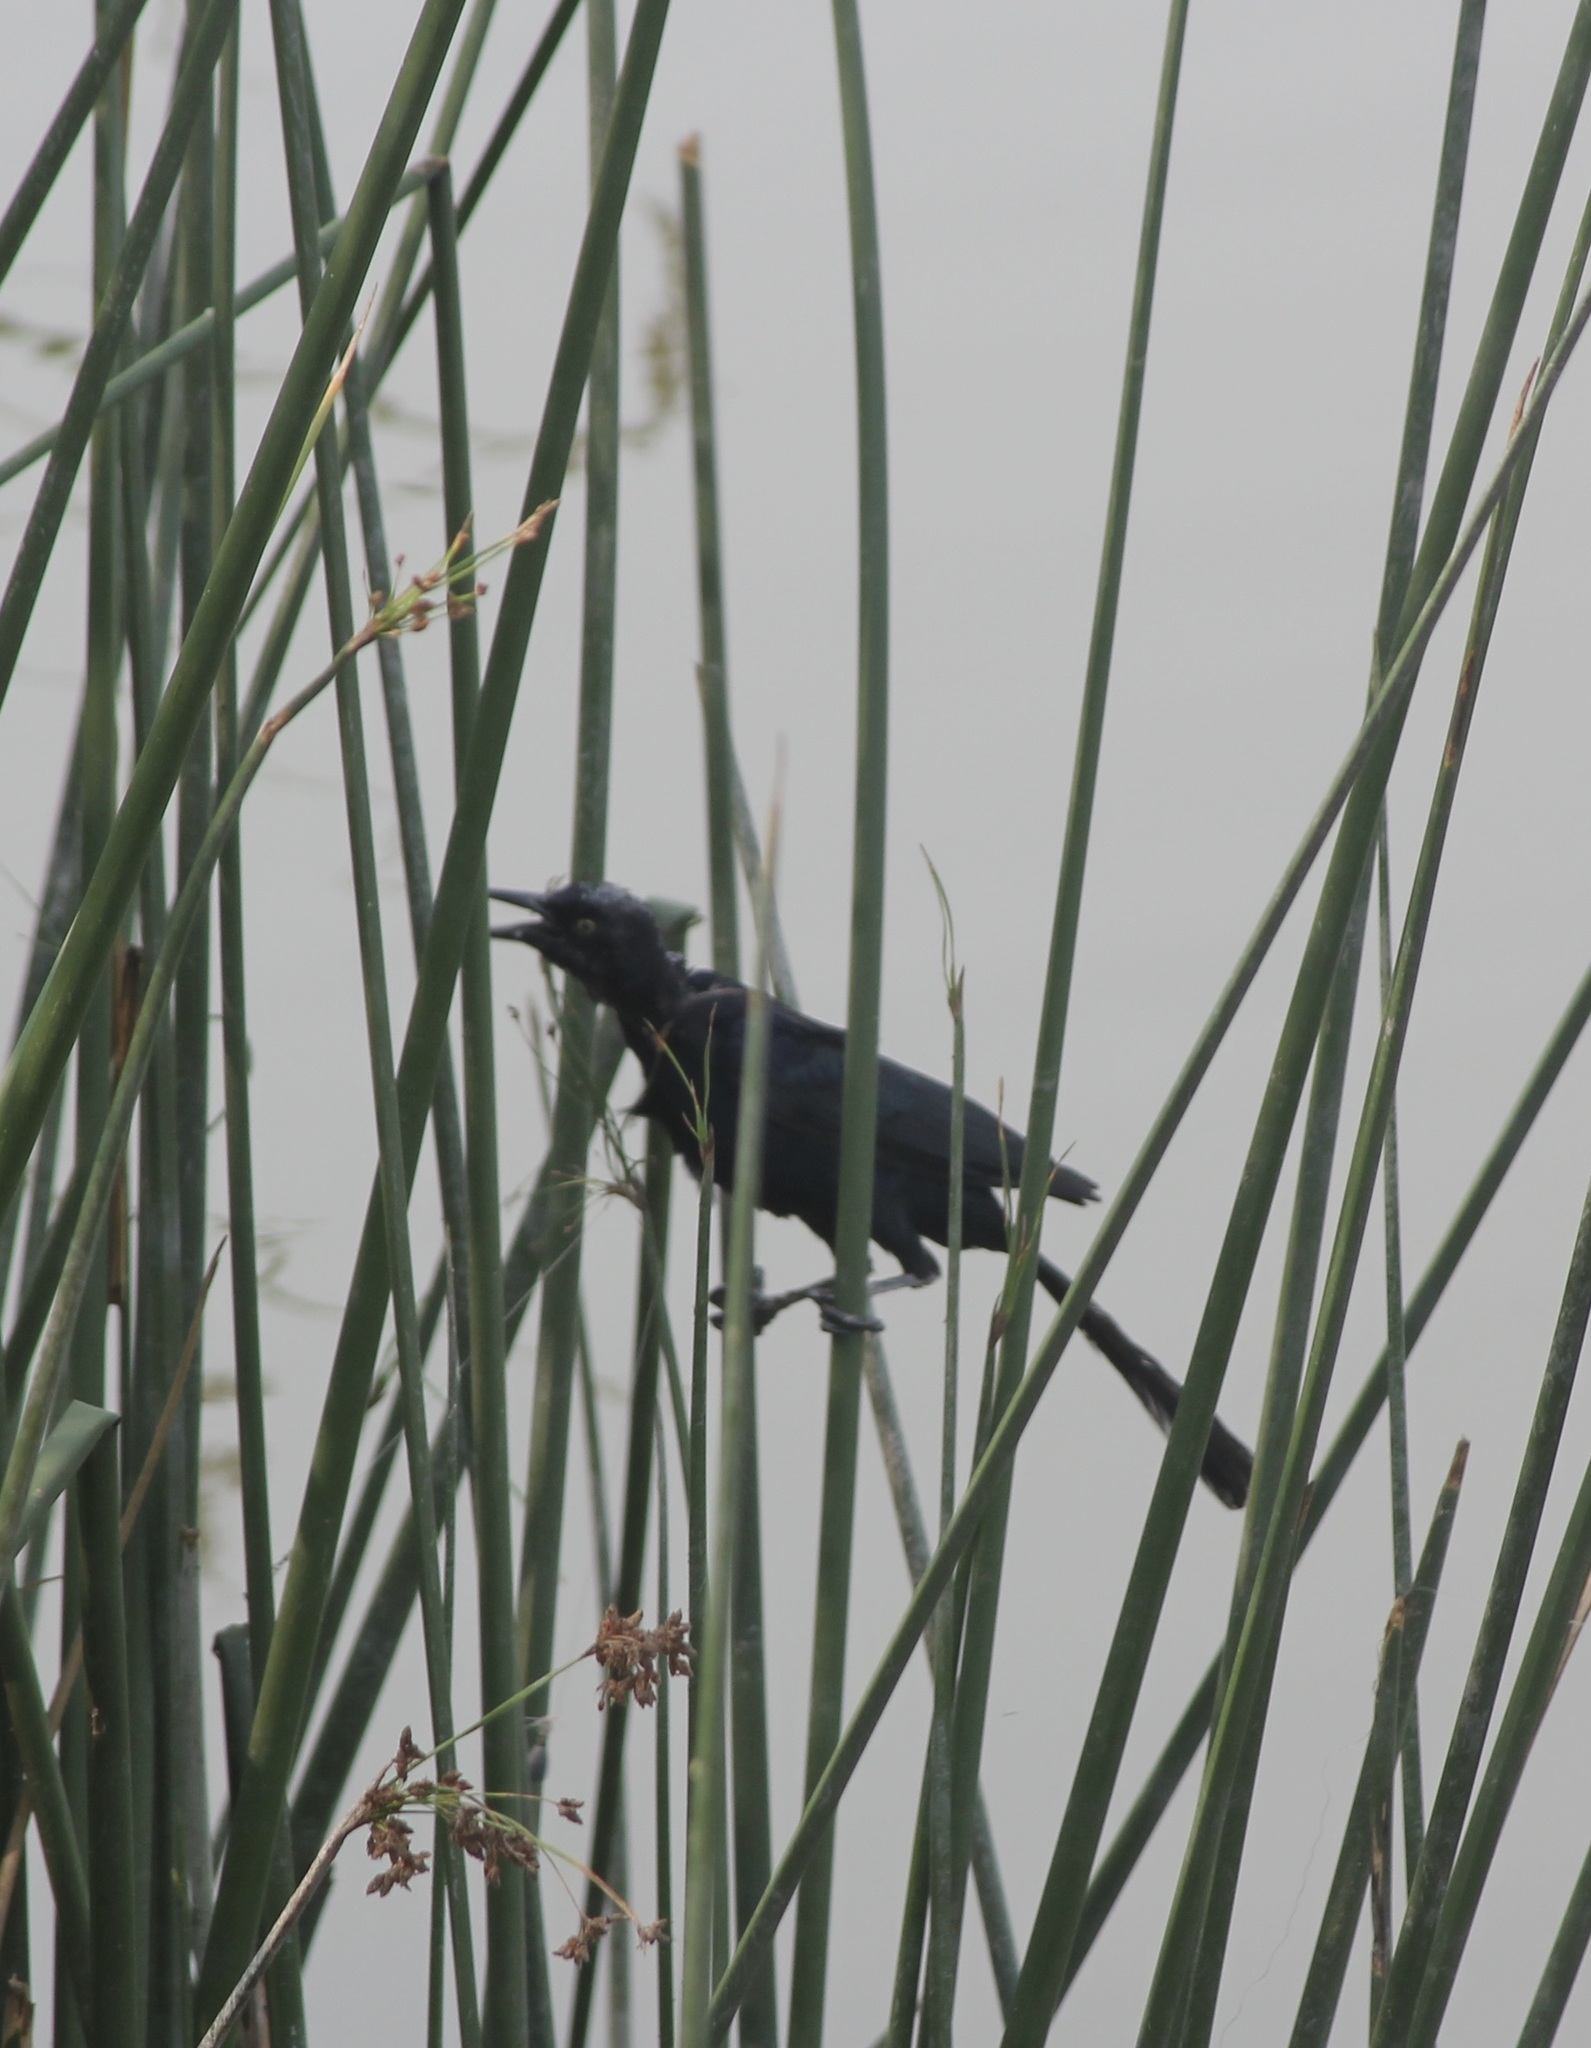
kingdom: Animalia
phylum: Chordata
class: Aves
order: Passeriformes
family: Icteridae
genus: Quiscalus
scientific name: Quiscalus mexicanus
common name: Great-tailed grackle
